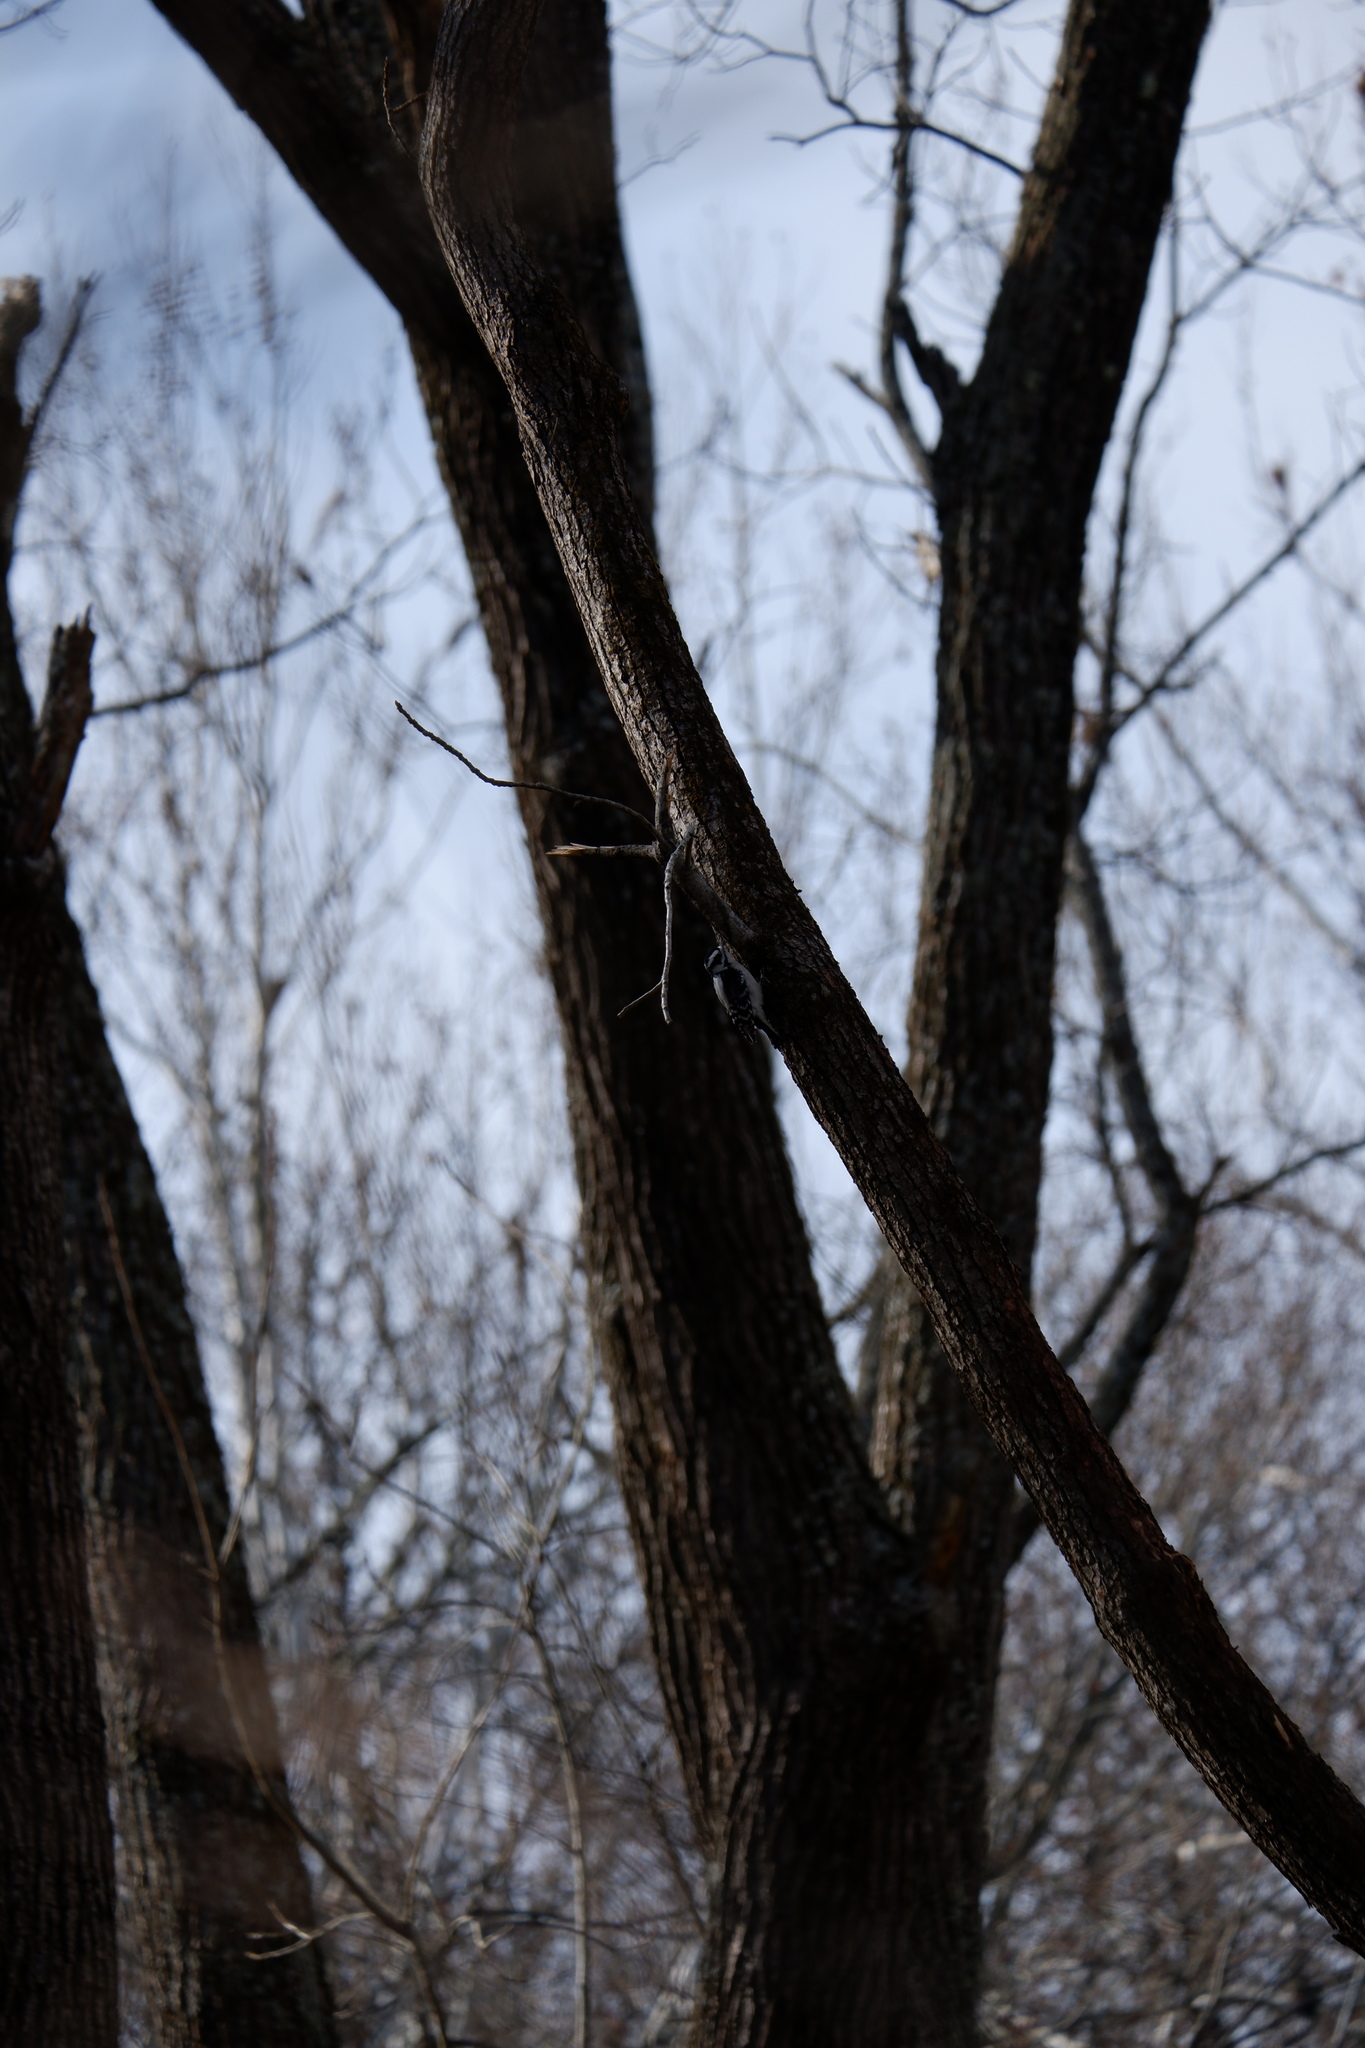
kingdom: Animalia
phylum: Chordata
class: Aves
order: Piciformes
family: Picidae
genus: Dryobates
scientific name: Dryobates pubescens
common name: Downy woodpecker
